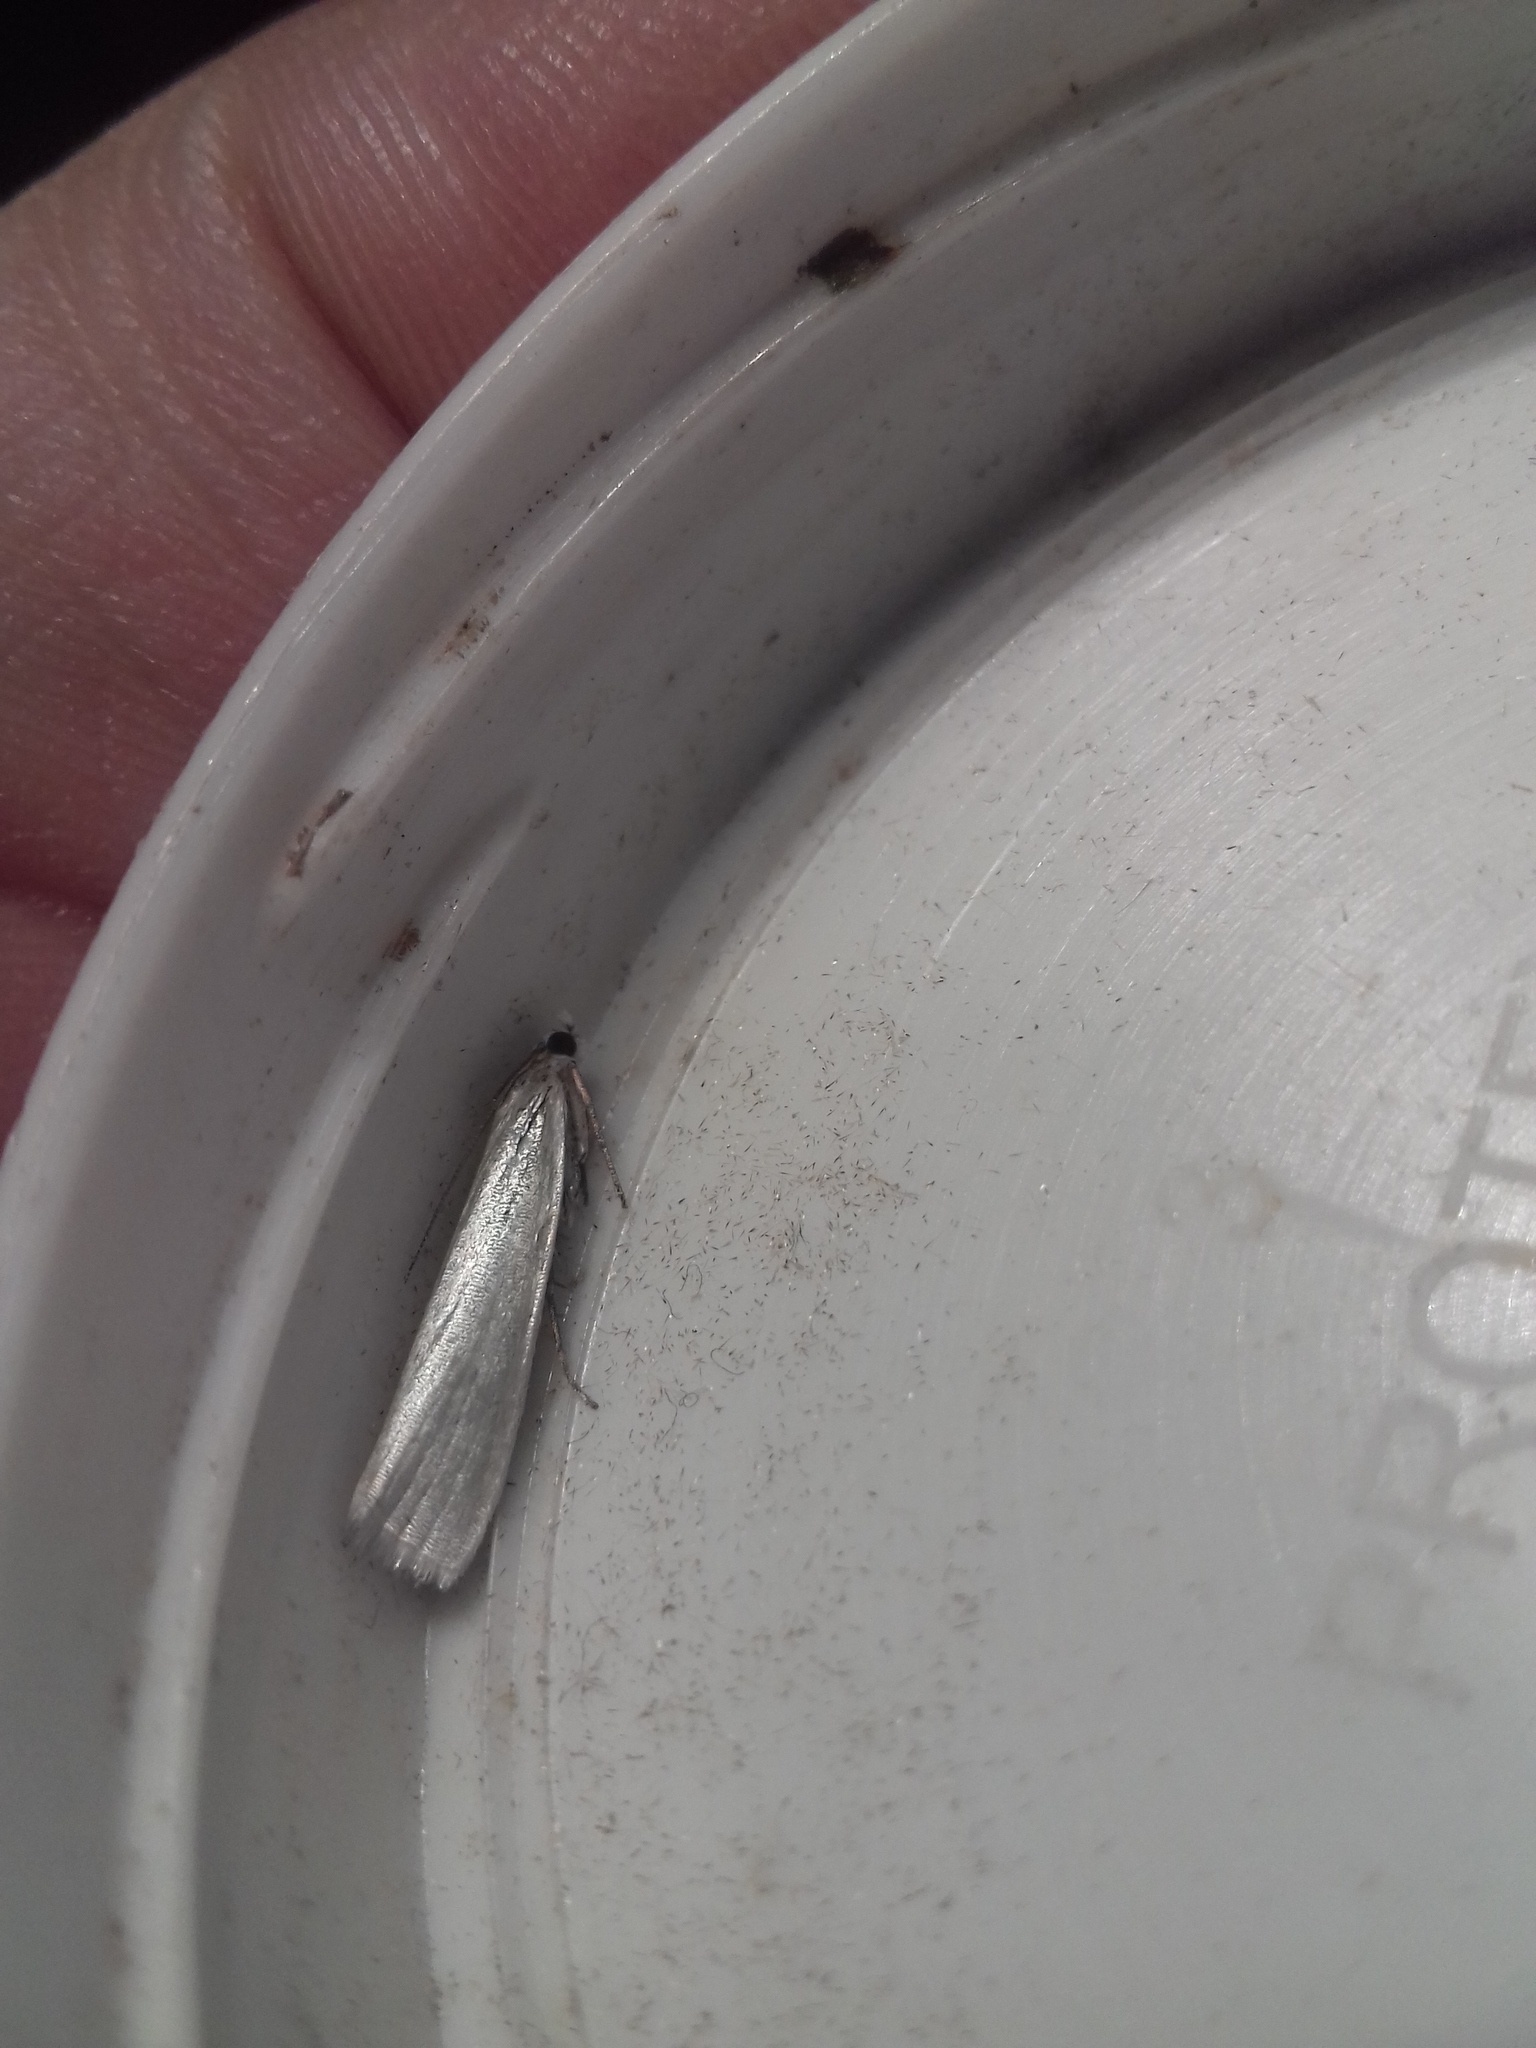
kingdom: Animalia
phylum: Arthropoda
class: Insecta
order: Lepidoptera
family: Crambidae
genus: Crambus
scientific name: Crambus perlellus
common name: Yellow satin veneer
